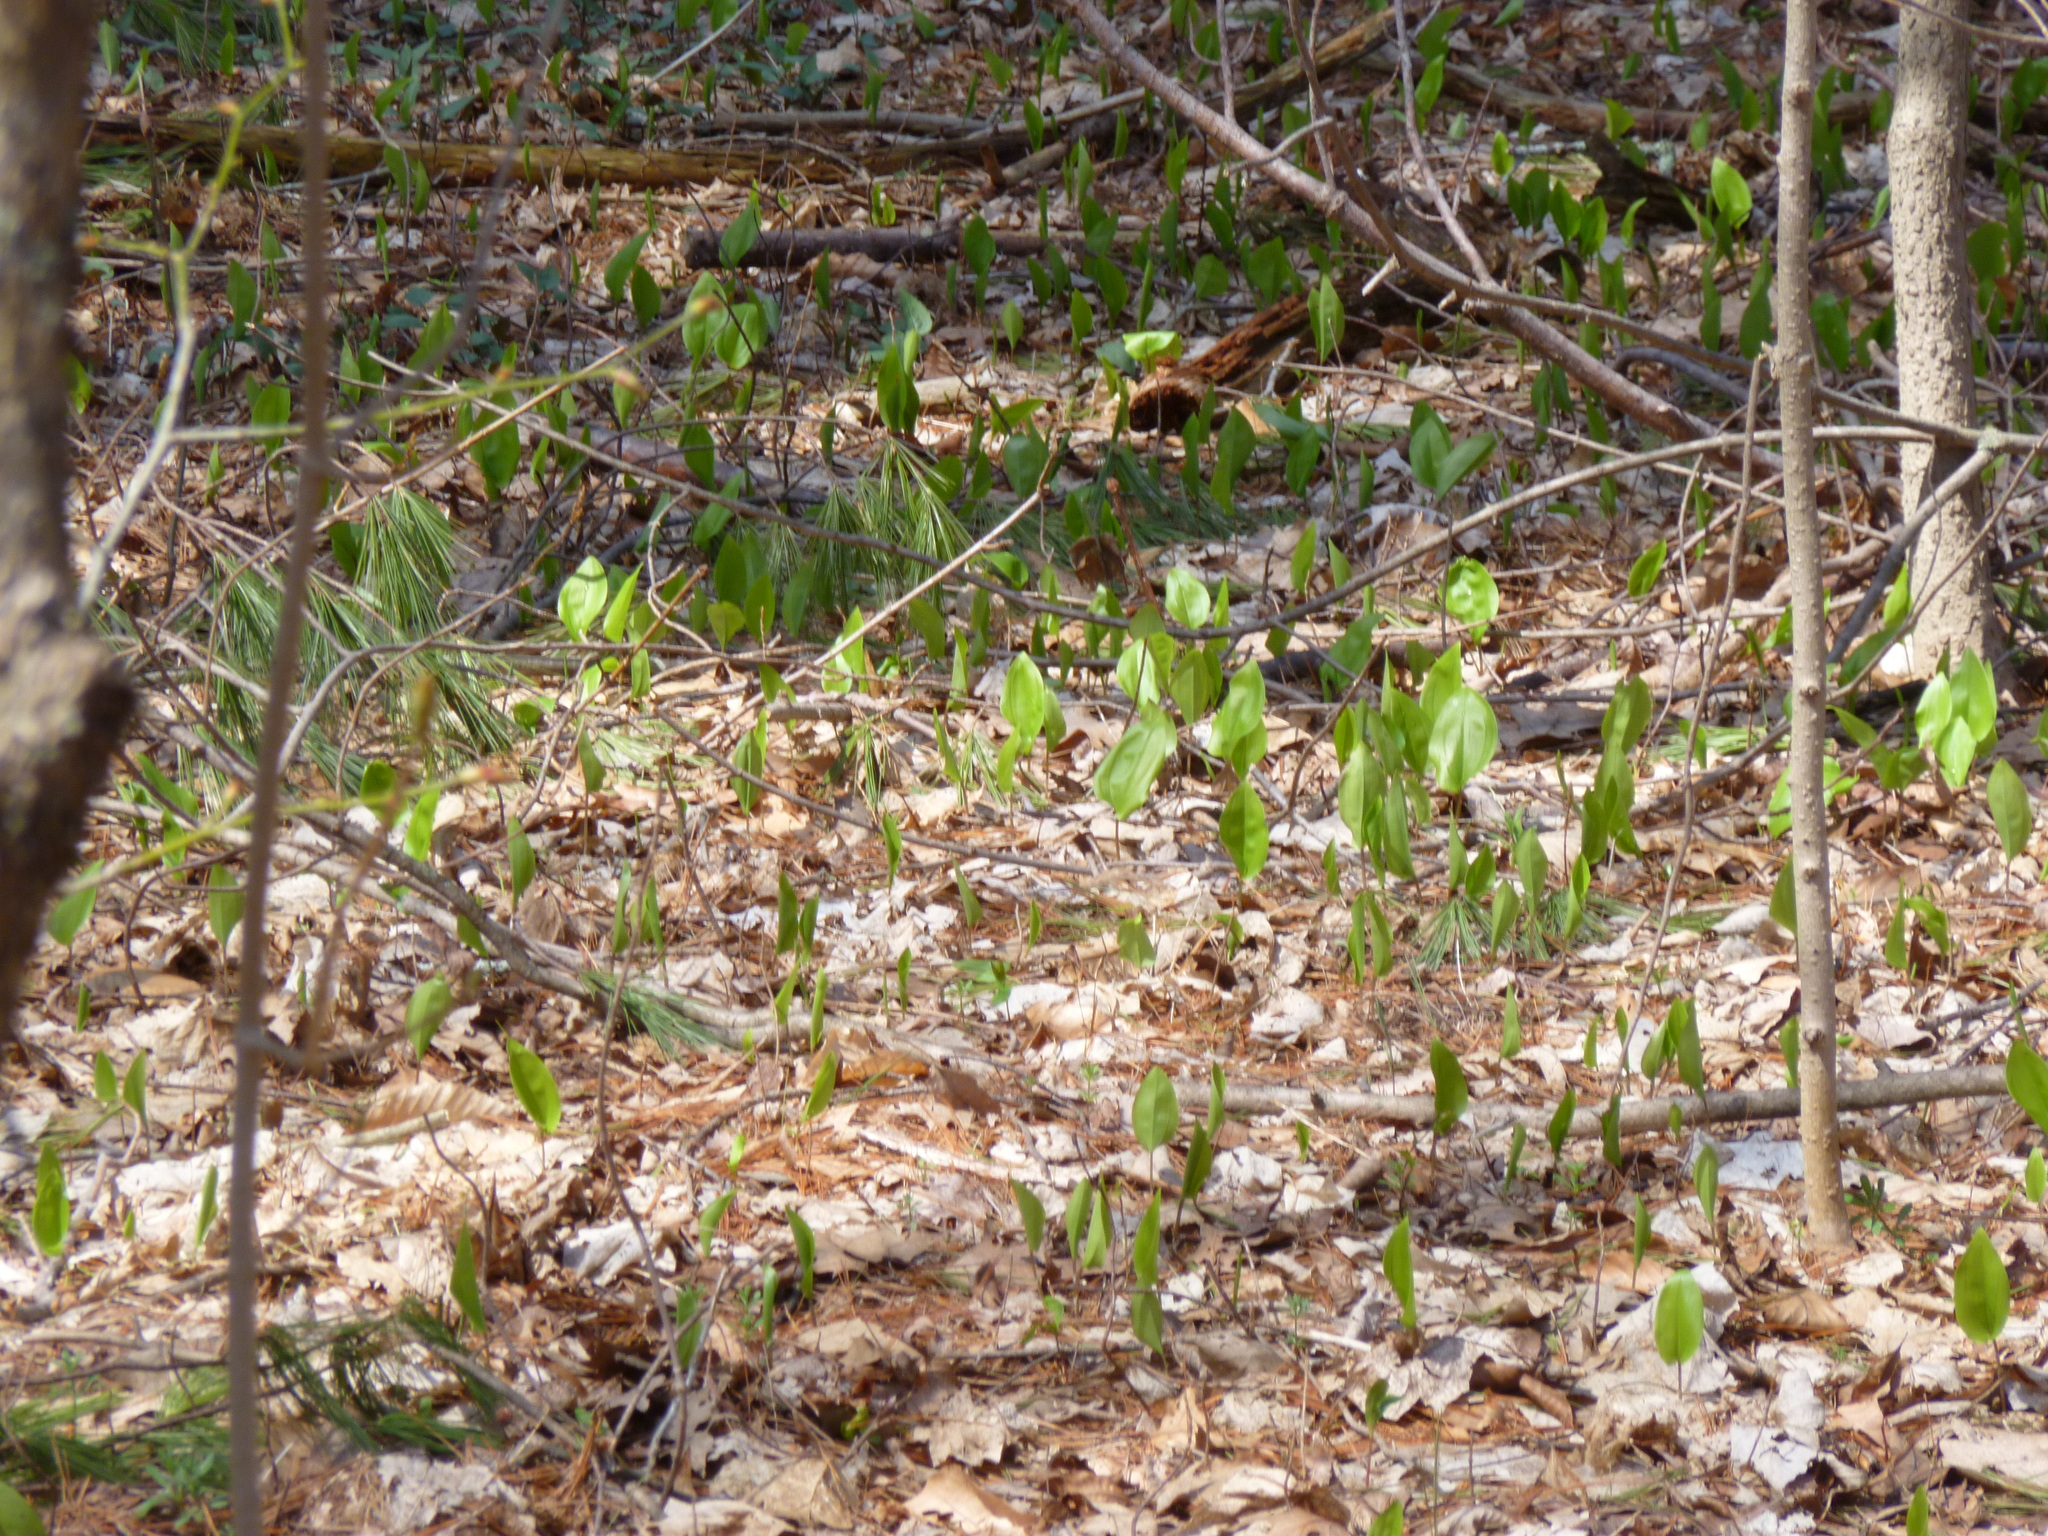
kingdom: Plantae
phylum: Tracheophyta
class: Liliopsida
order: Asparagales
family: Asparagaceae
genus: Maianthemum
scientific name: Maianthemum canadense
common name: False lily-of-the-valley
